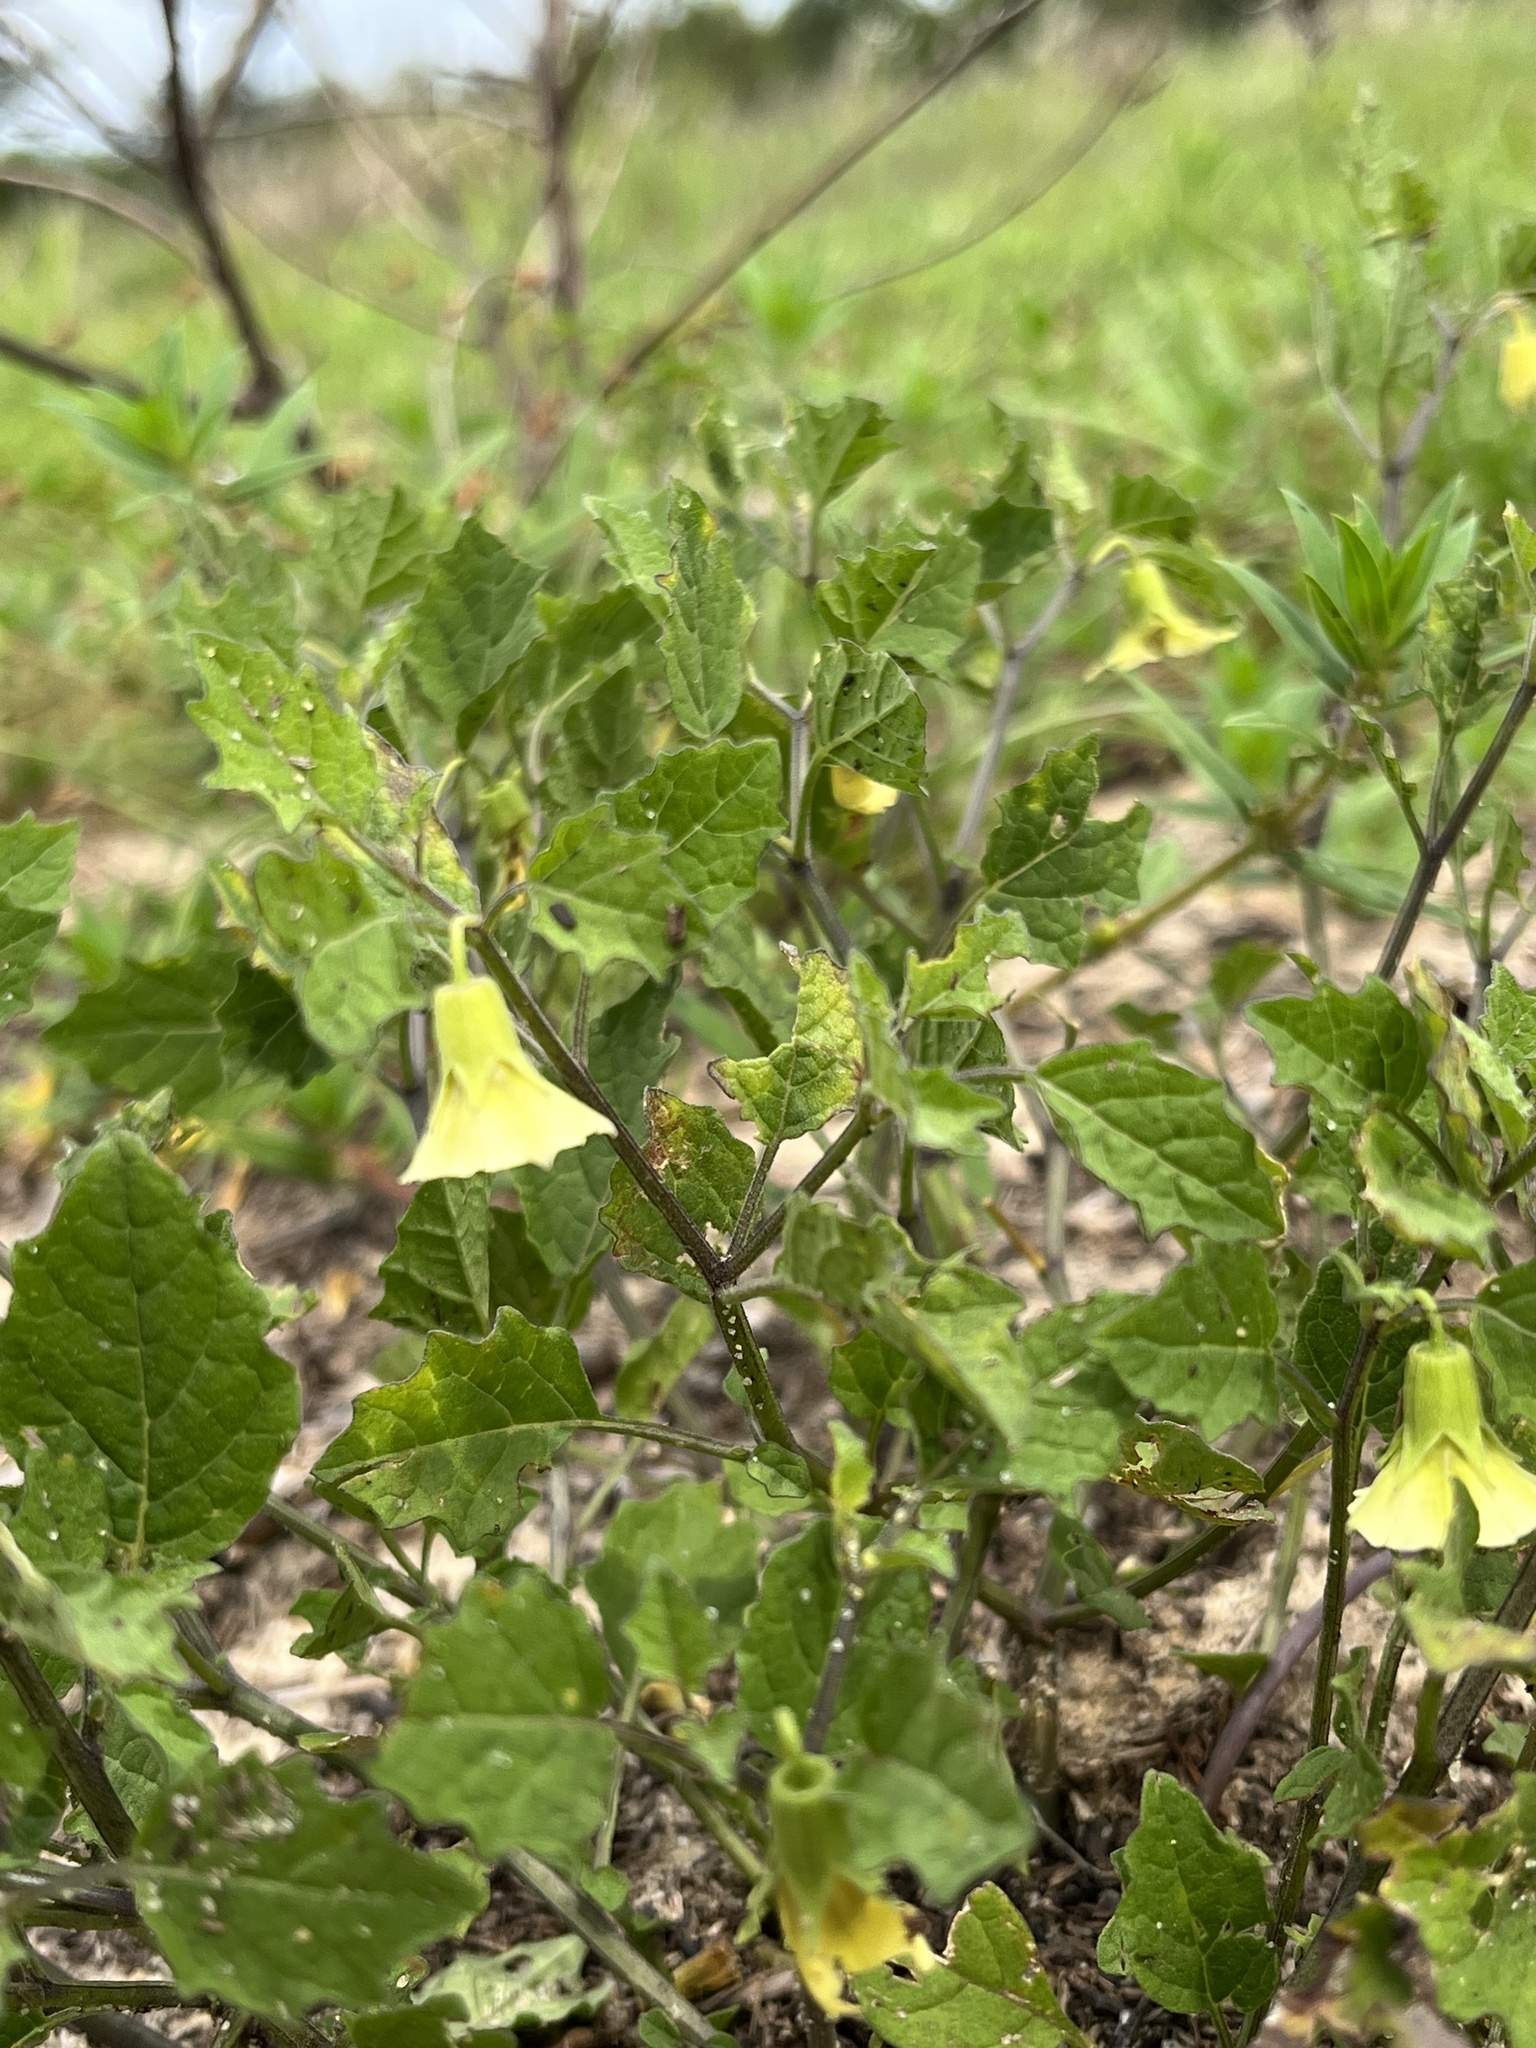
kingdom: Plantae
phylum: Tracheophyta
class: Magnoliopsida
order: Solanales
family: Solanaceae
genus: Physalis
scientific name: Physalis arenicola
